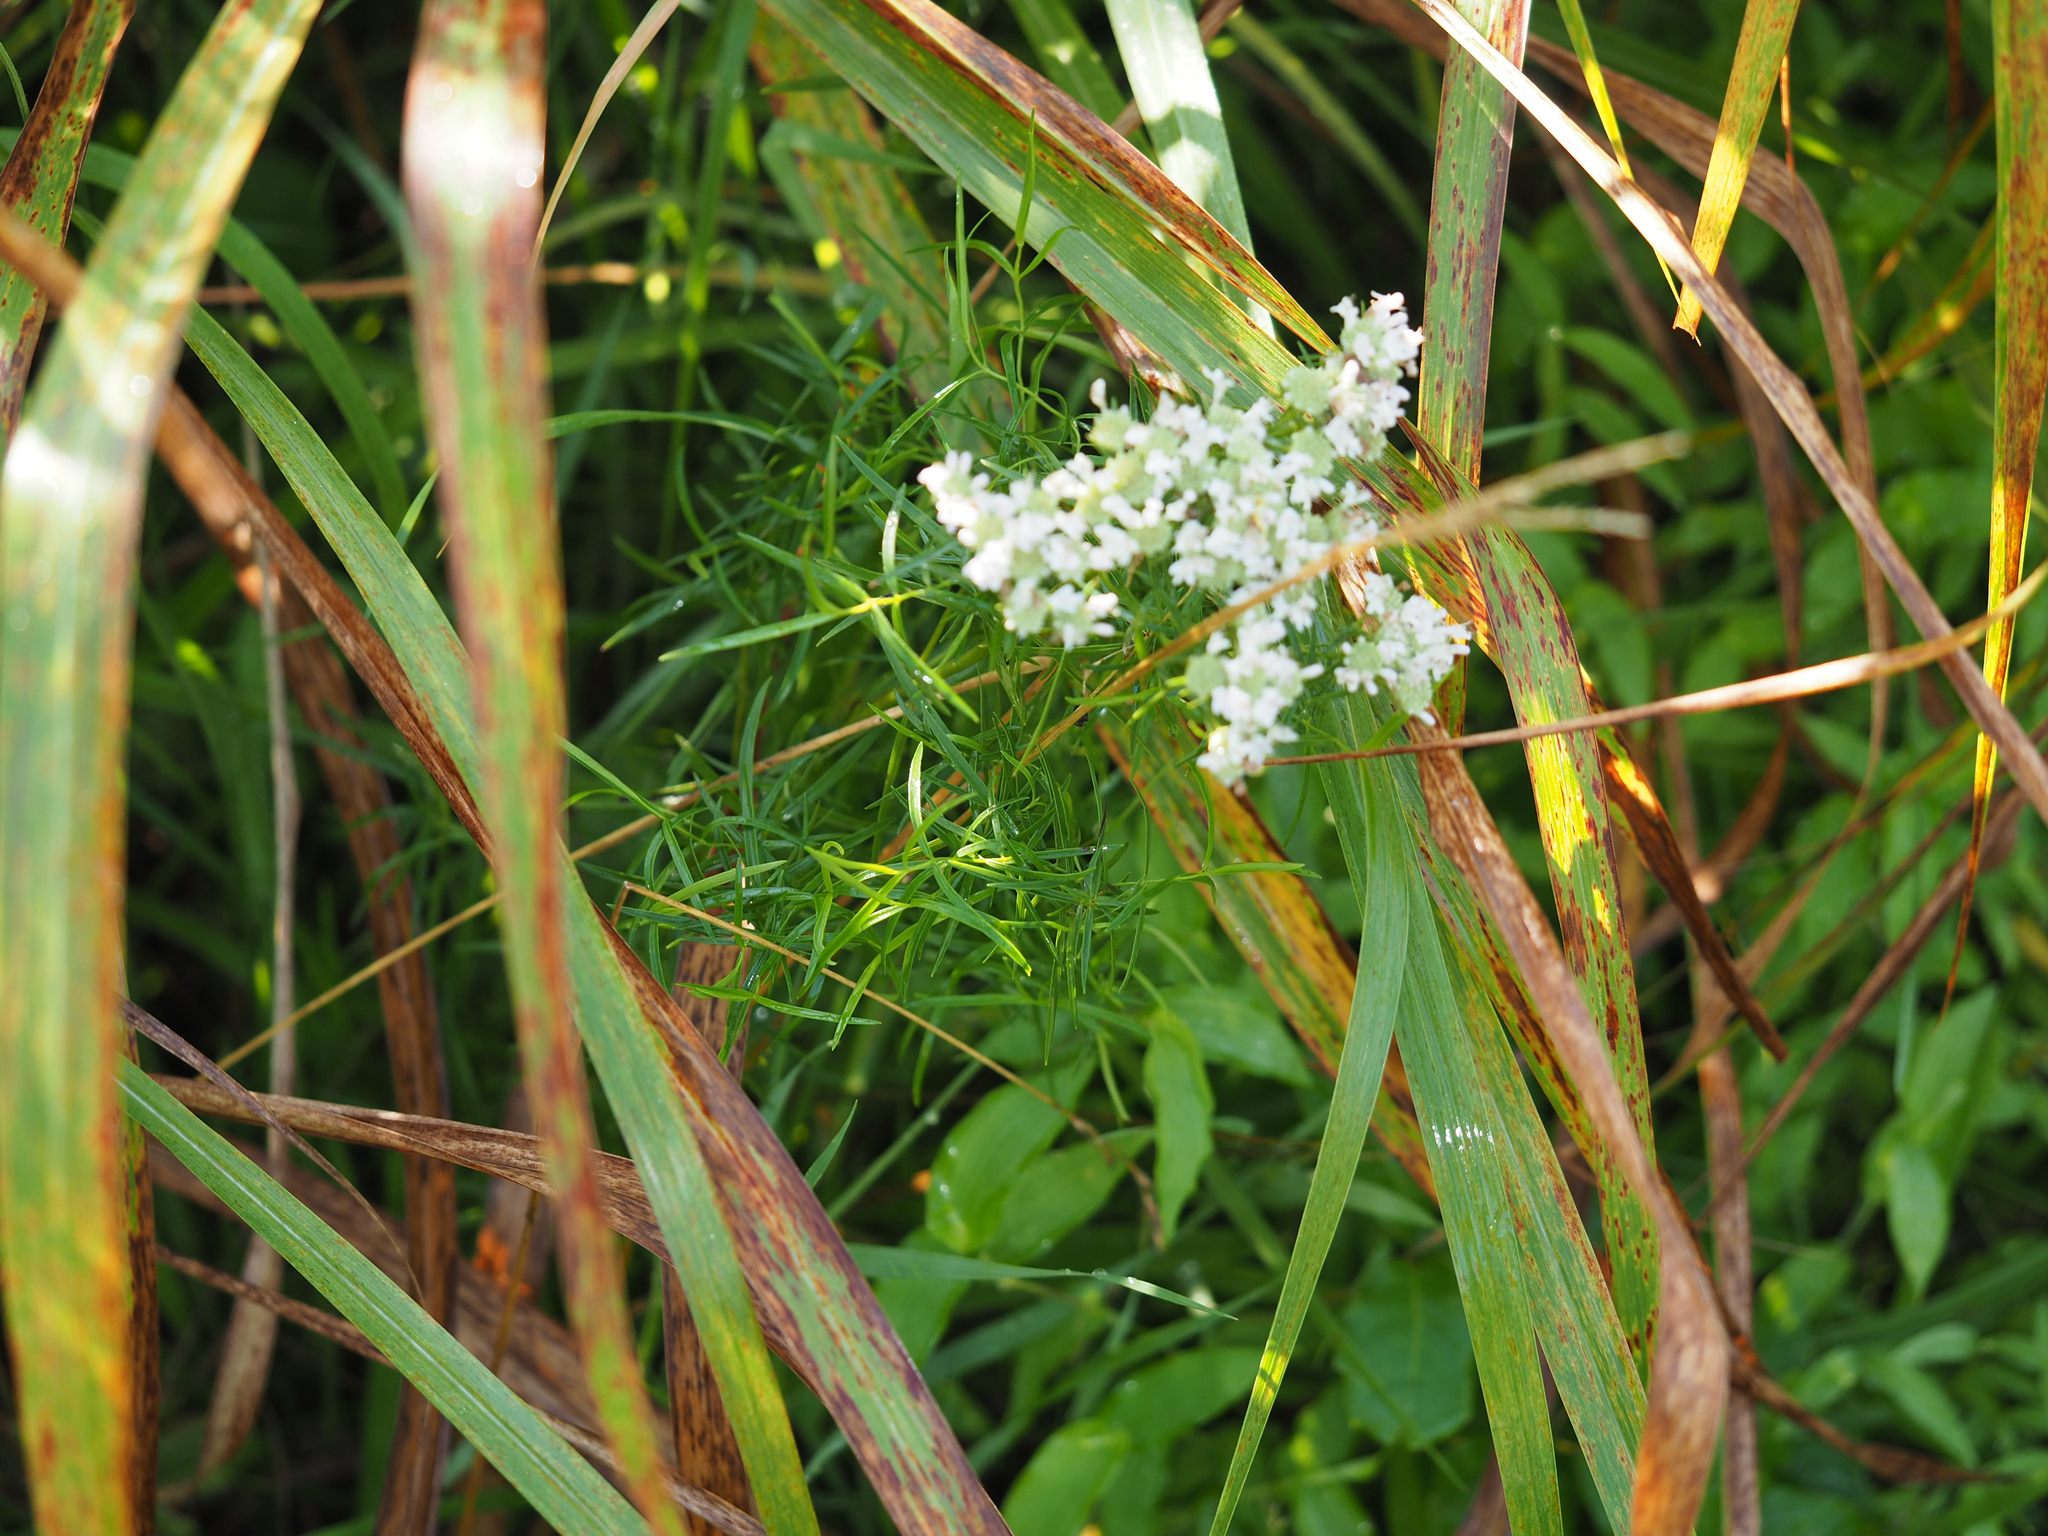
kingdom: Plantae
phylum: Tracheophyta
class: Magnoliopsida
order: Lamiales
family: Lamiaceae
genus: Pycnanthemum
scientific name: Pycnanthemum tenuifolium
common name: Narrow-leaf mountain-mint
